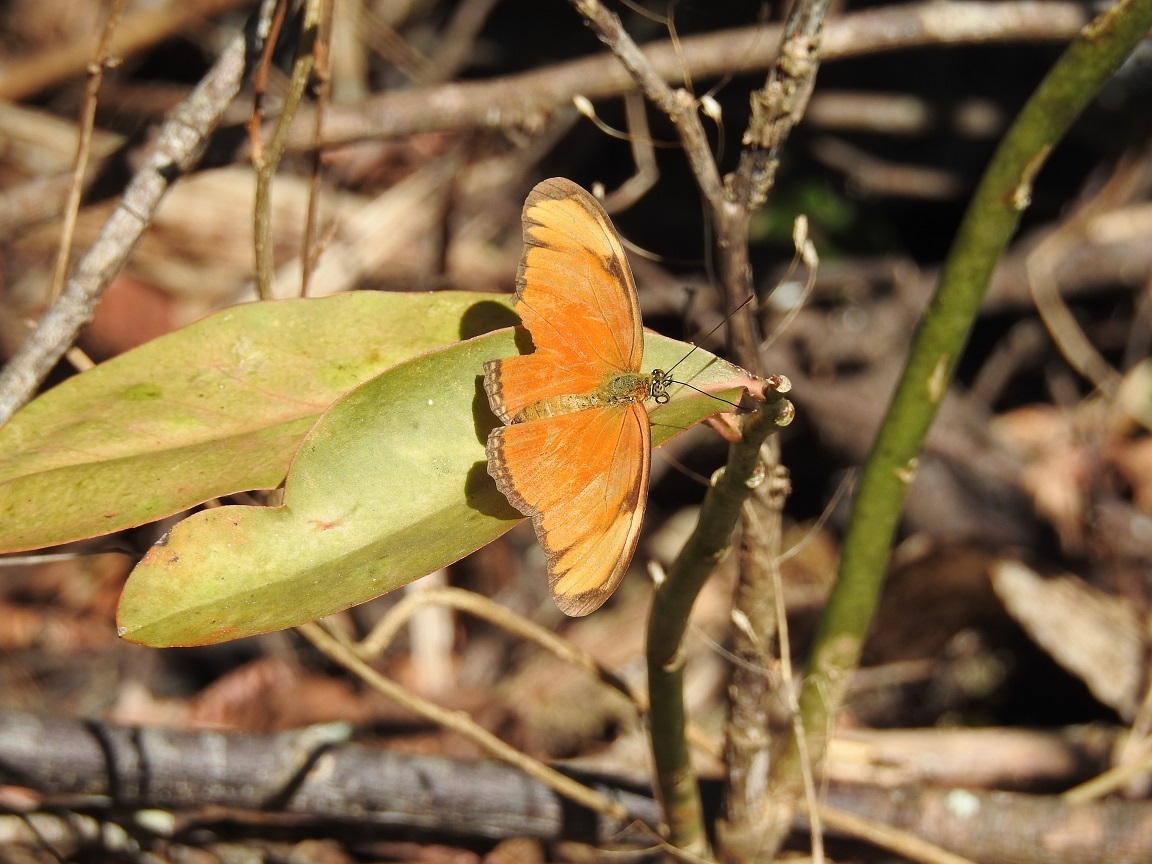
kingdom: Animalia
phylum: Arthropoda
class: Insecta
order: Lepidoptera
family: Nymphalidae
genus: Dryas
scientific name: Dryas iulia
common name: Flambeau
